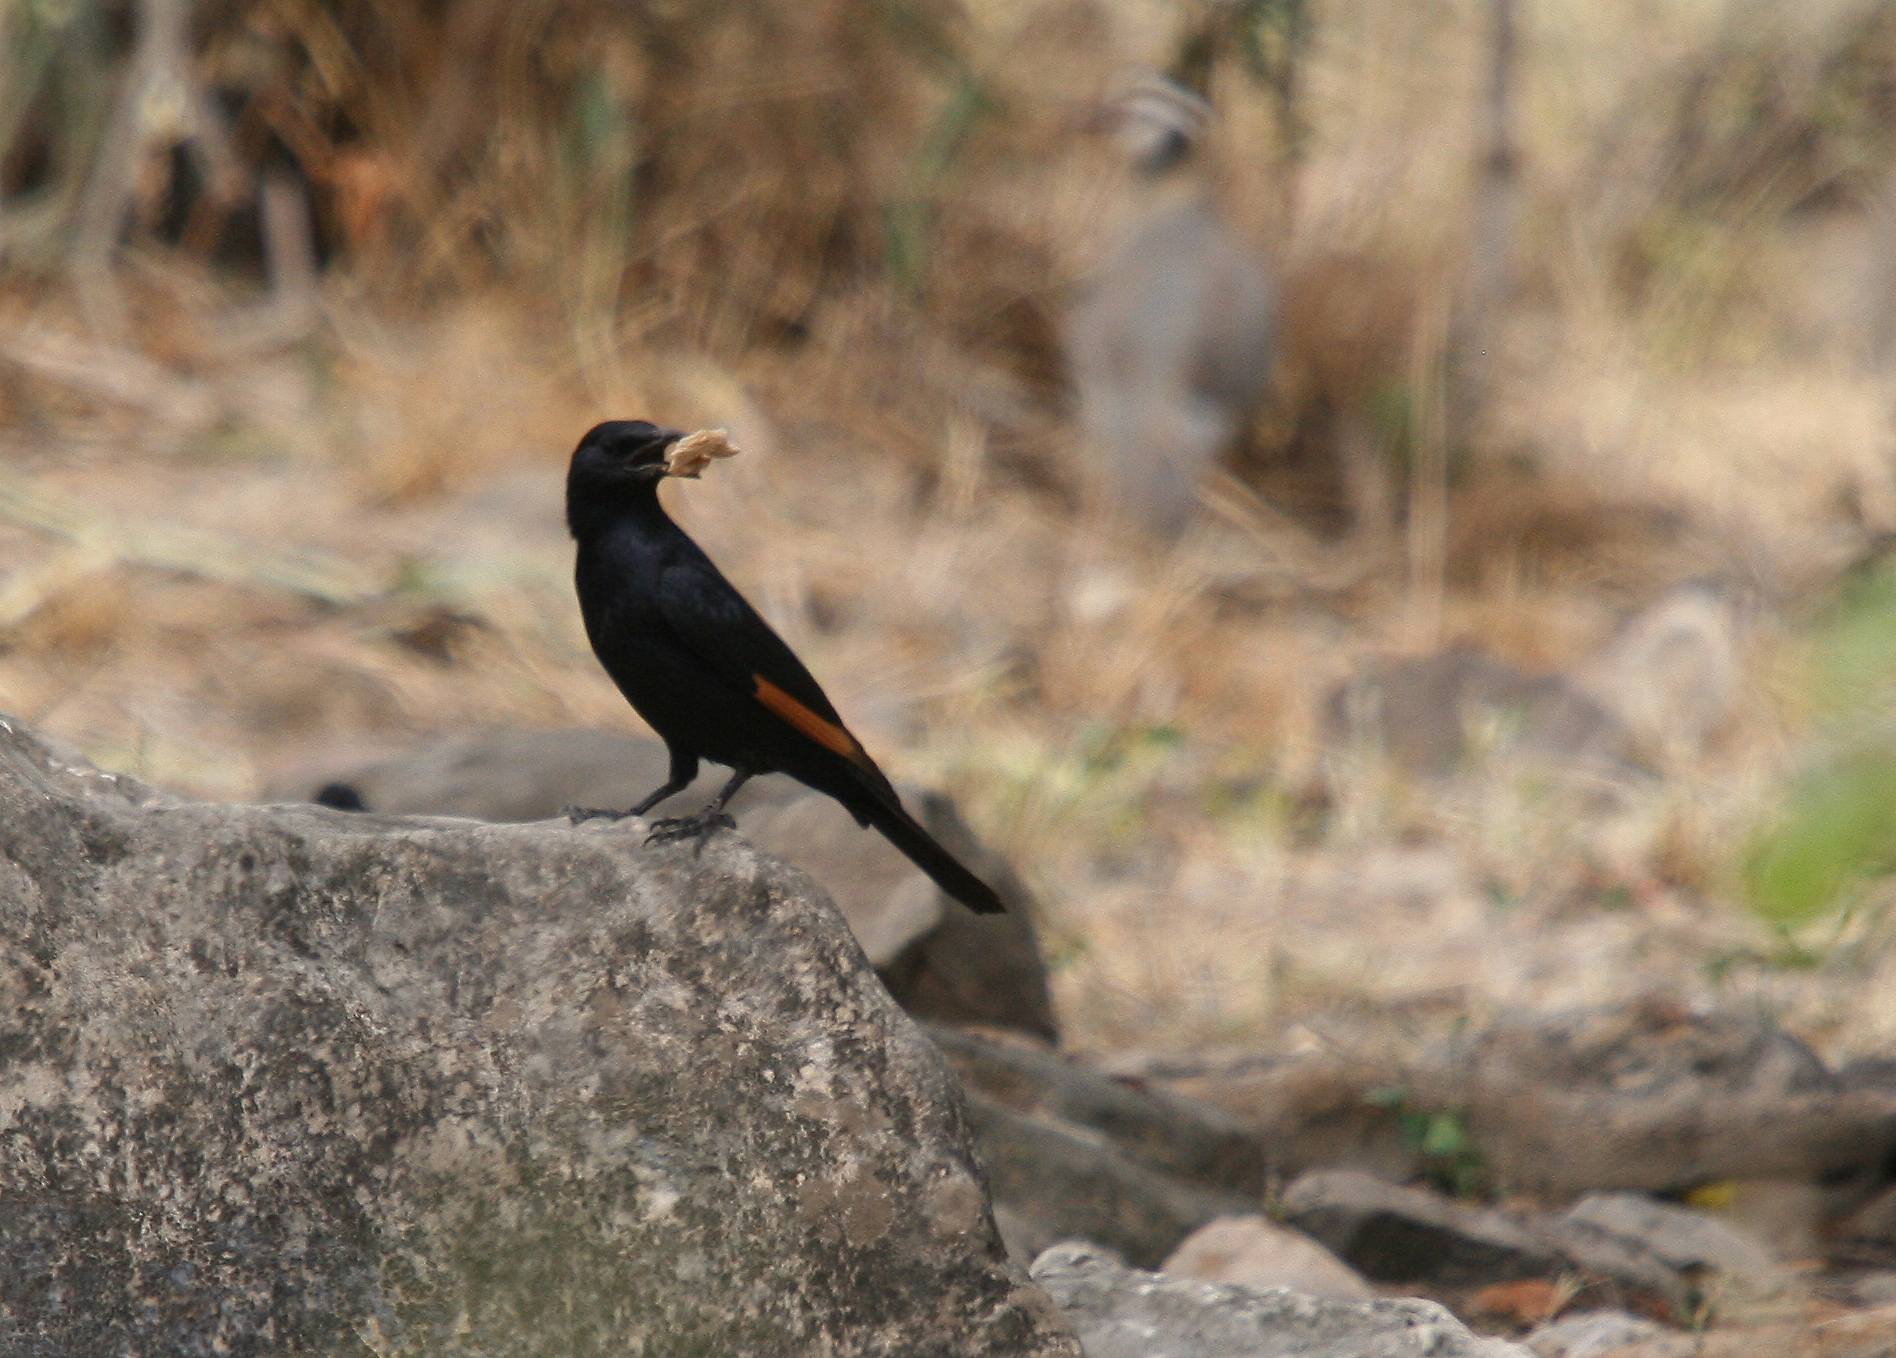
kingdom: Animalia
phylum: Chordata
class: Aves
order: Passeriformes
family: Sturnidae
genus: Onychognathus
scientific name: Onychognathus tristramii
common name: Tristram's starling
